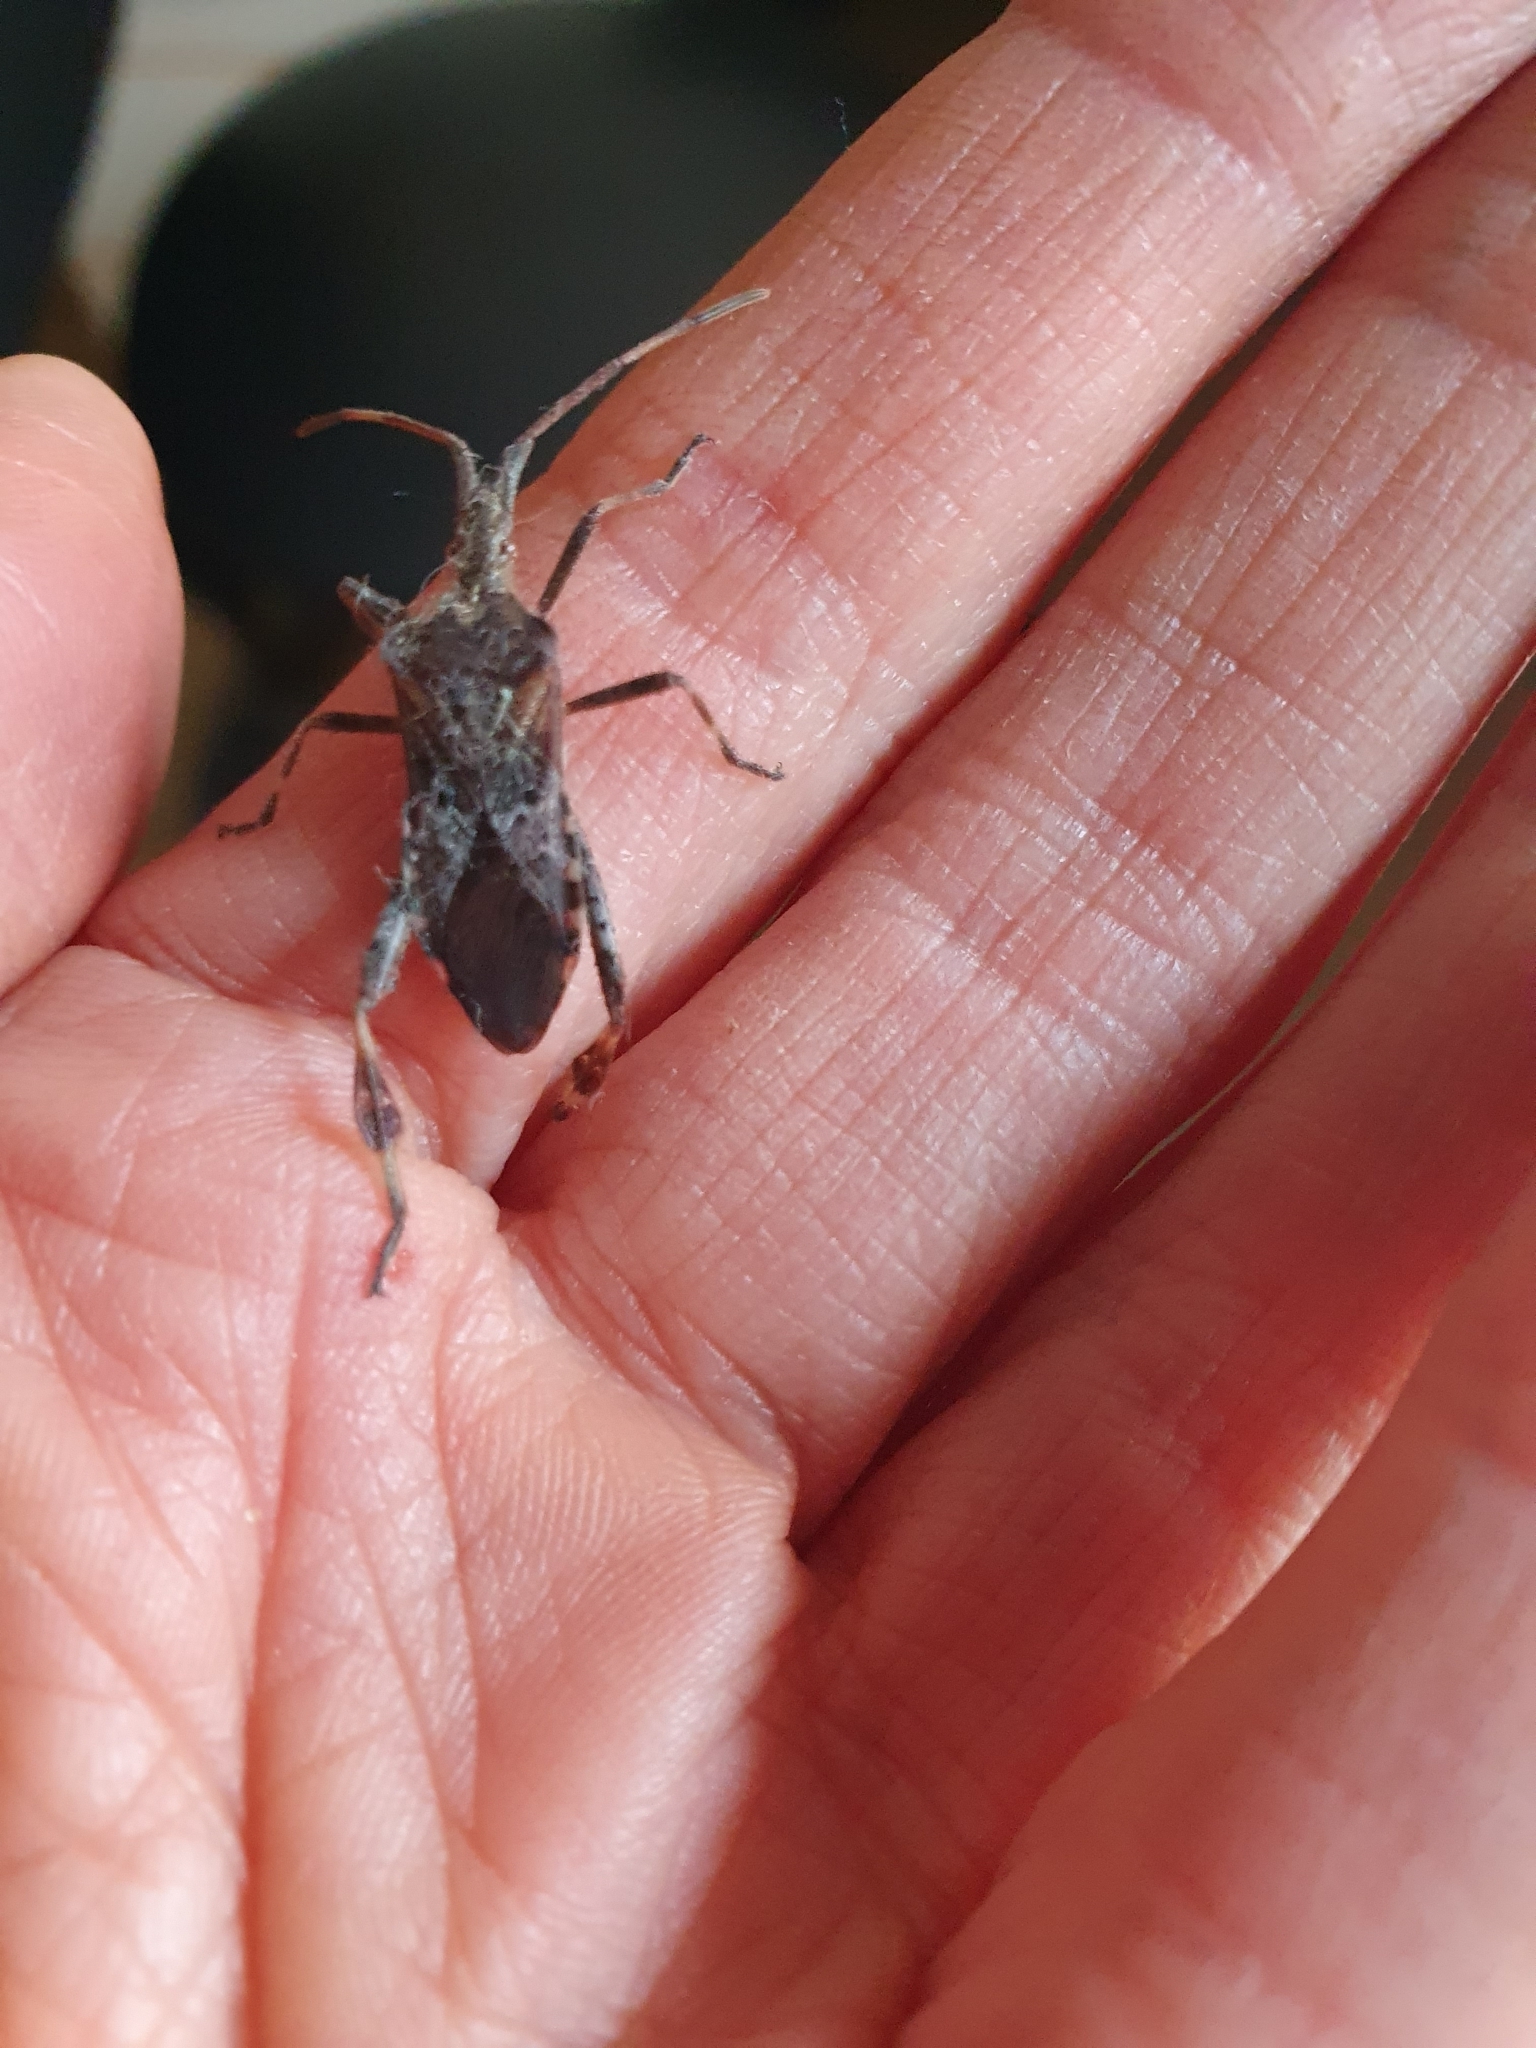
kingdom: Animalia
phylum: Arthropoda
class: Insecta
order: Hemiptera
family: Coreidae
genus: Leptoglossus
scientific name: Leptoglossus occidentalis
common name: Western conifer-seed bug
